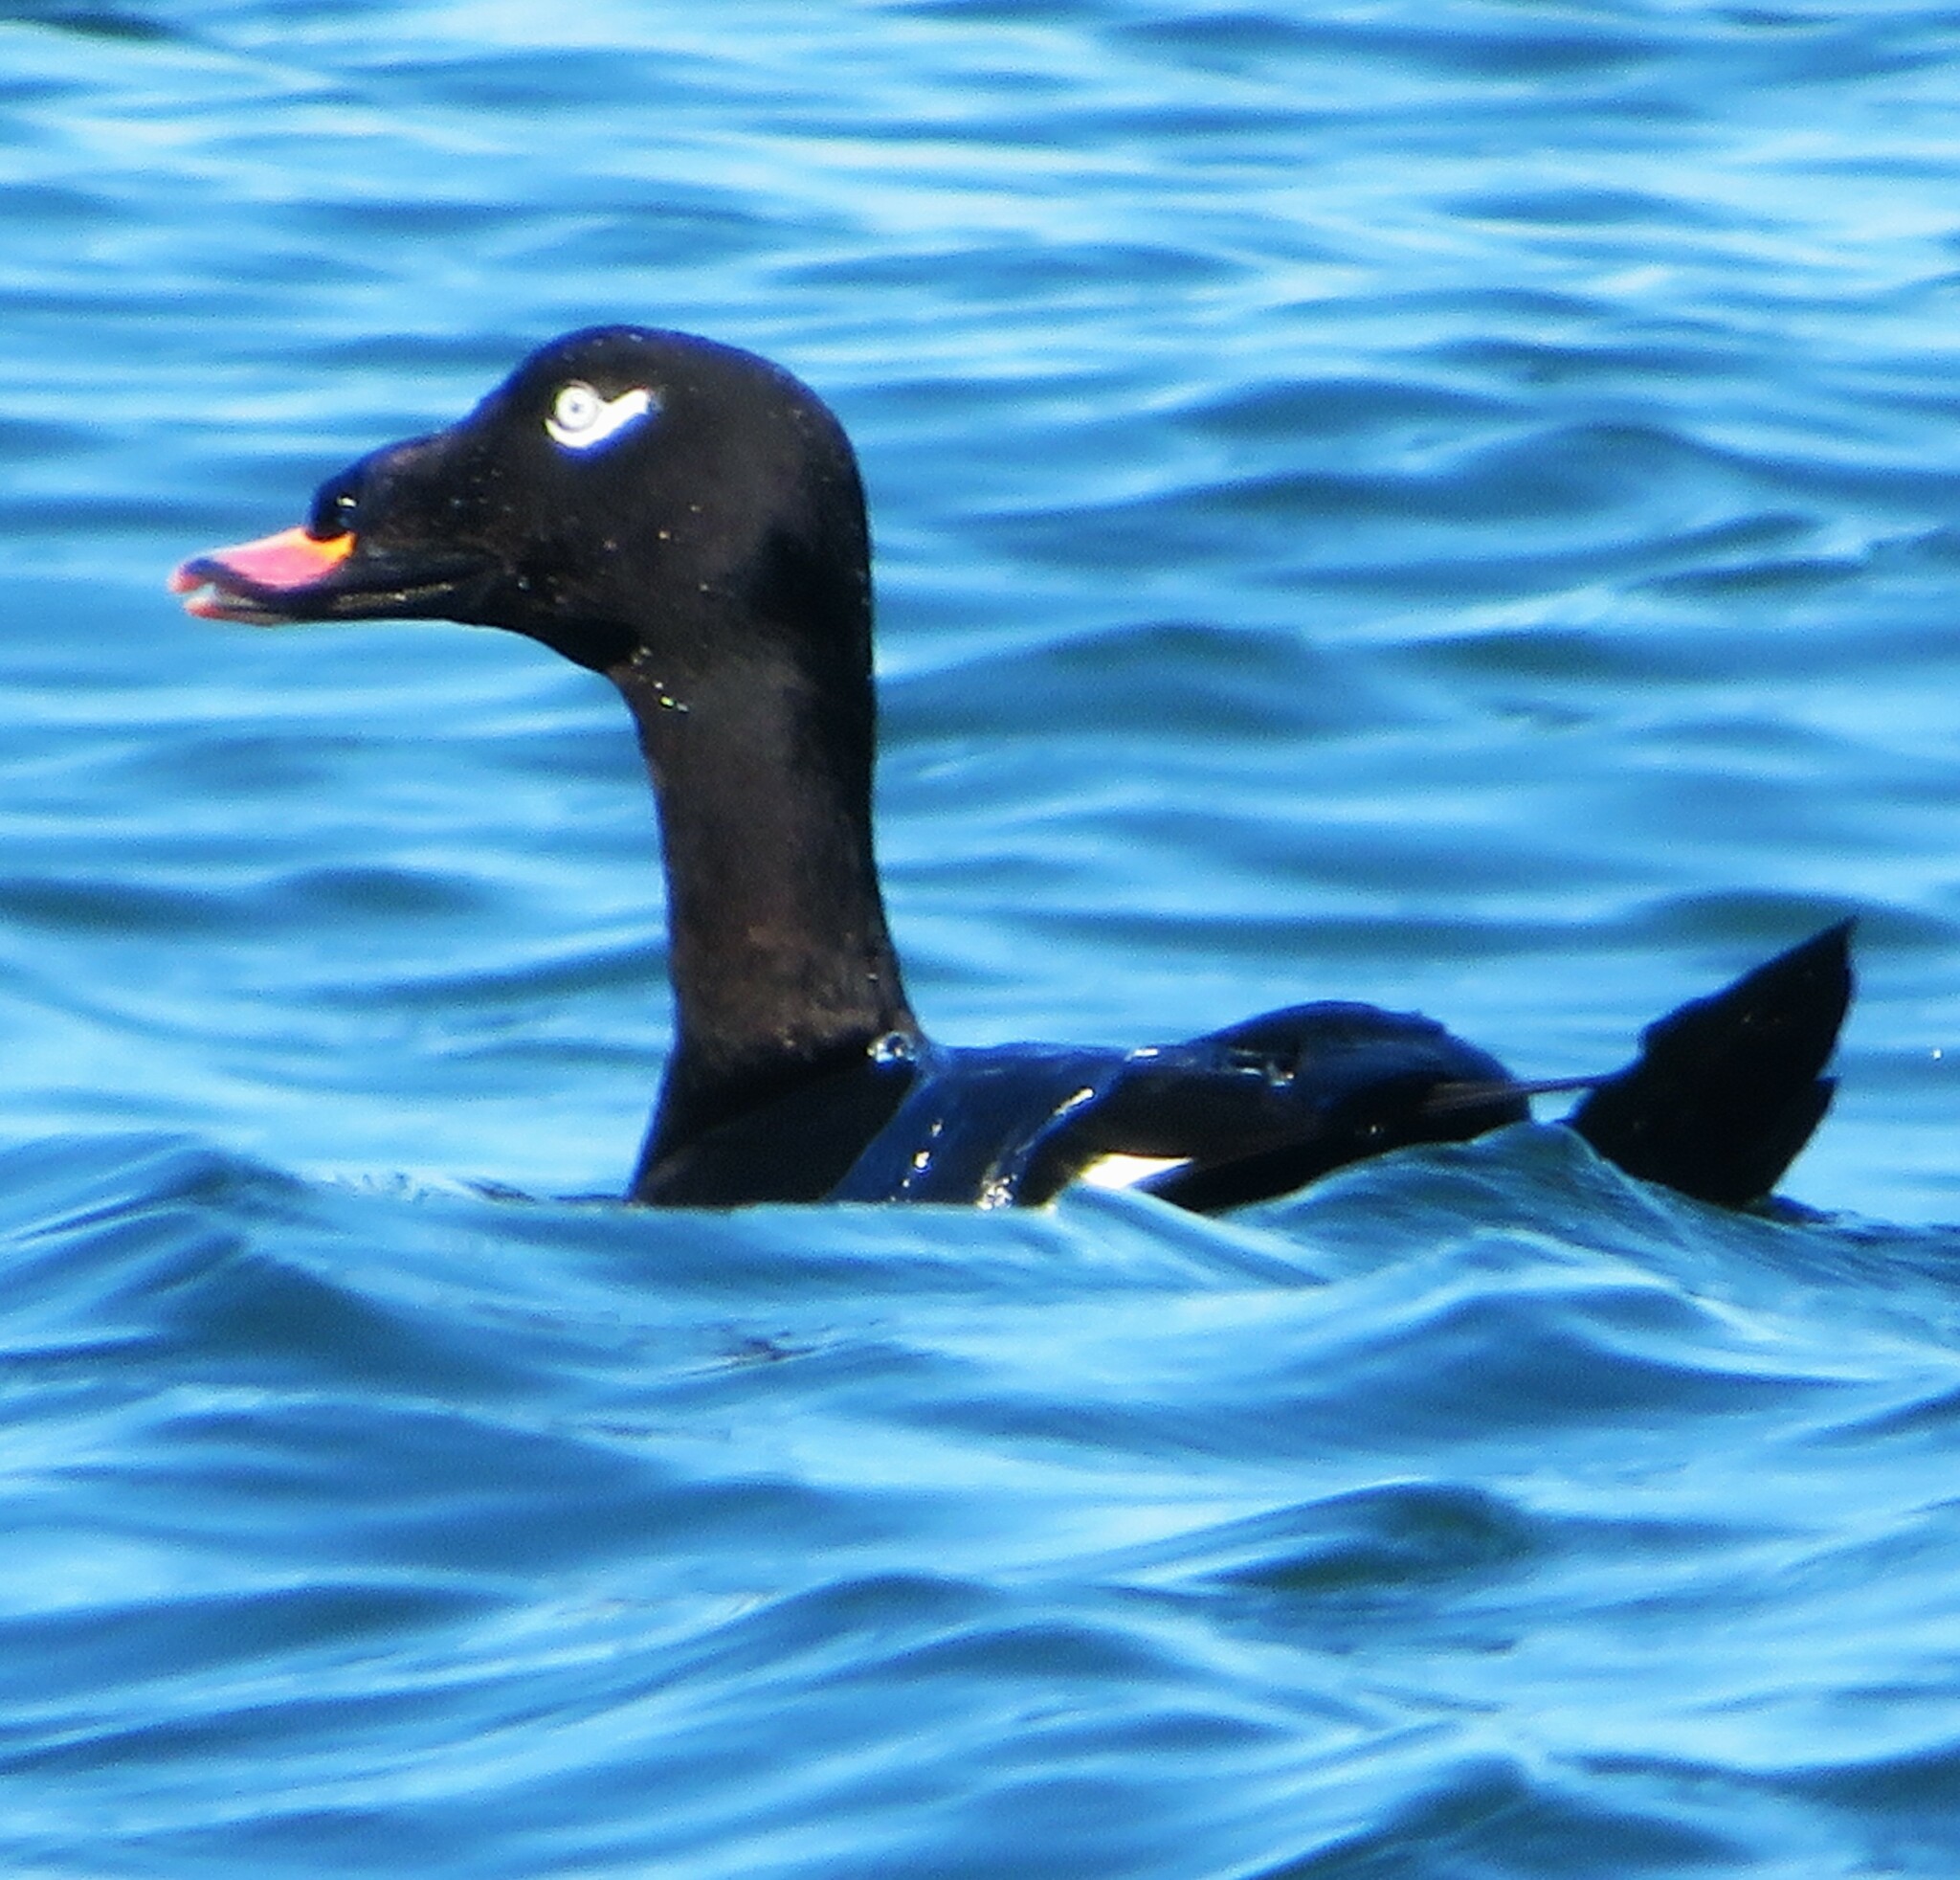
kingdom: Animalia
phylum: Chordata
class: Aves
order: Anseriformes
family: Anatidae
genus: Melanitta
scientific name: Melanitta deglandi
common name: White-winged scoter
